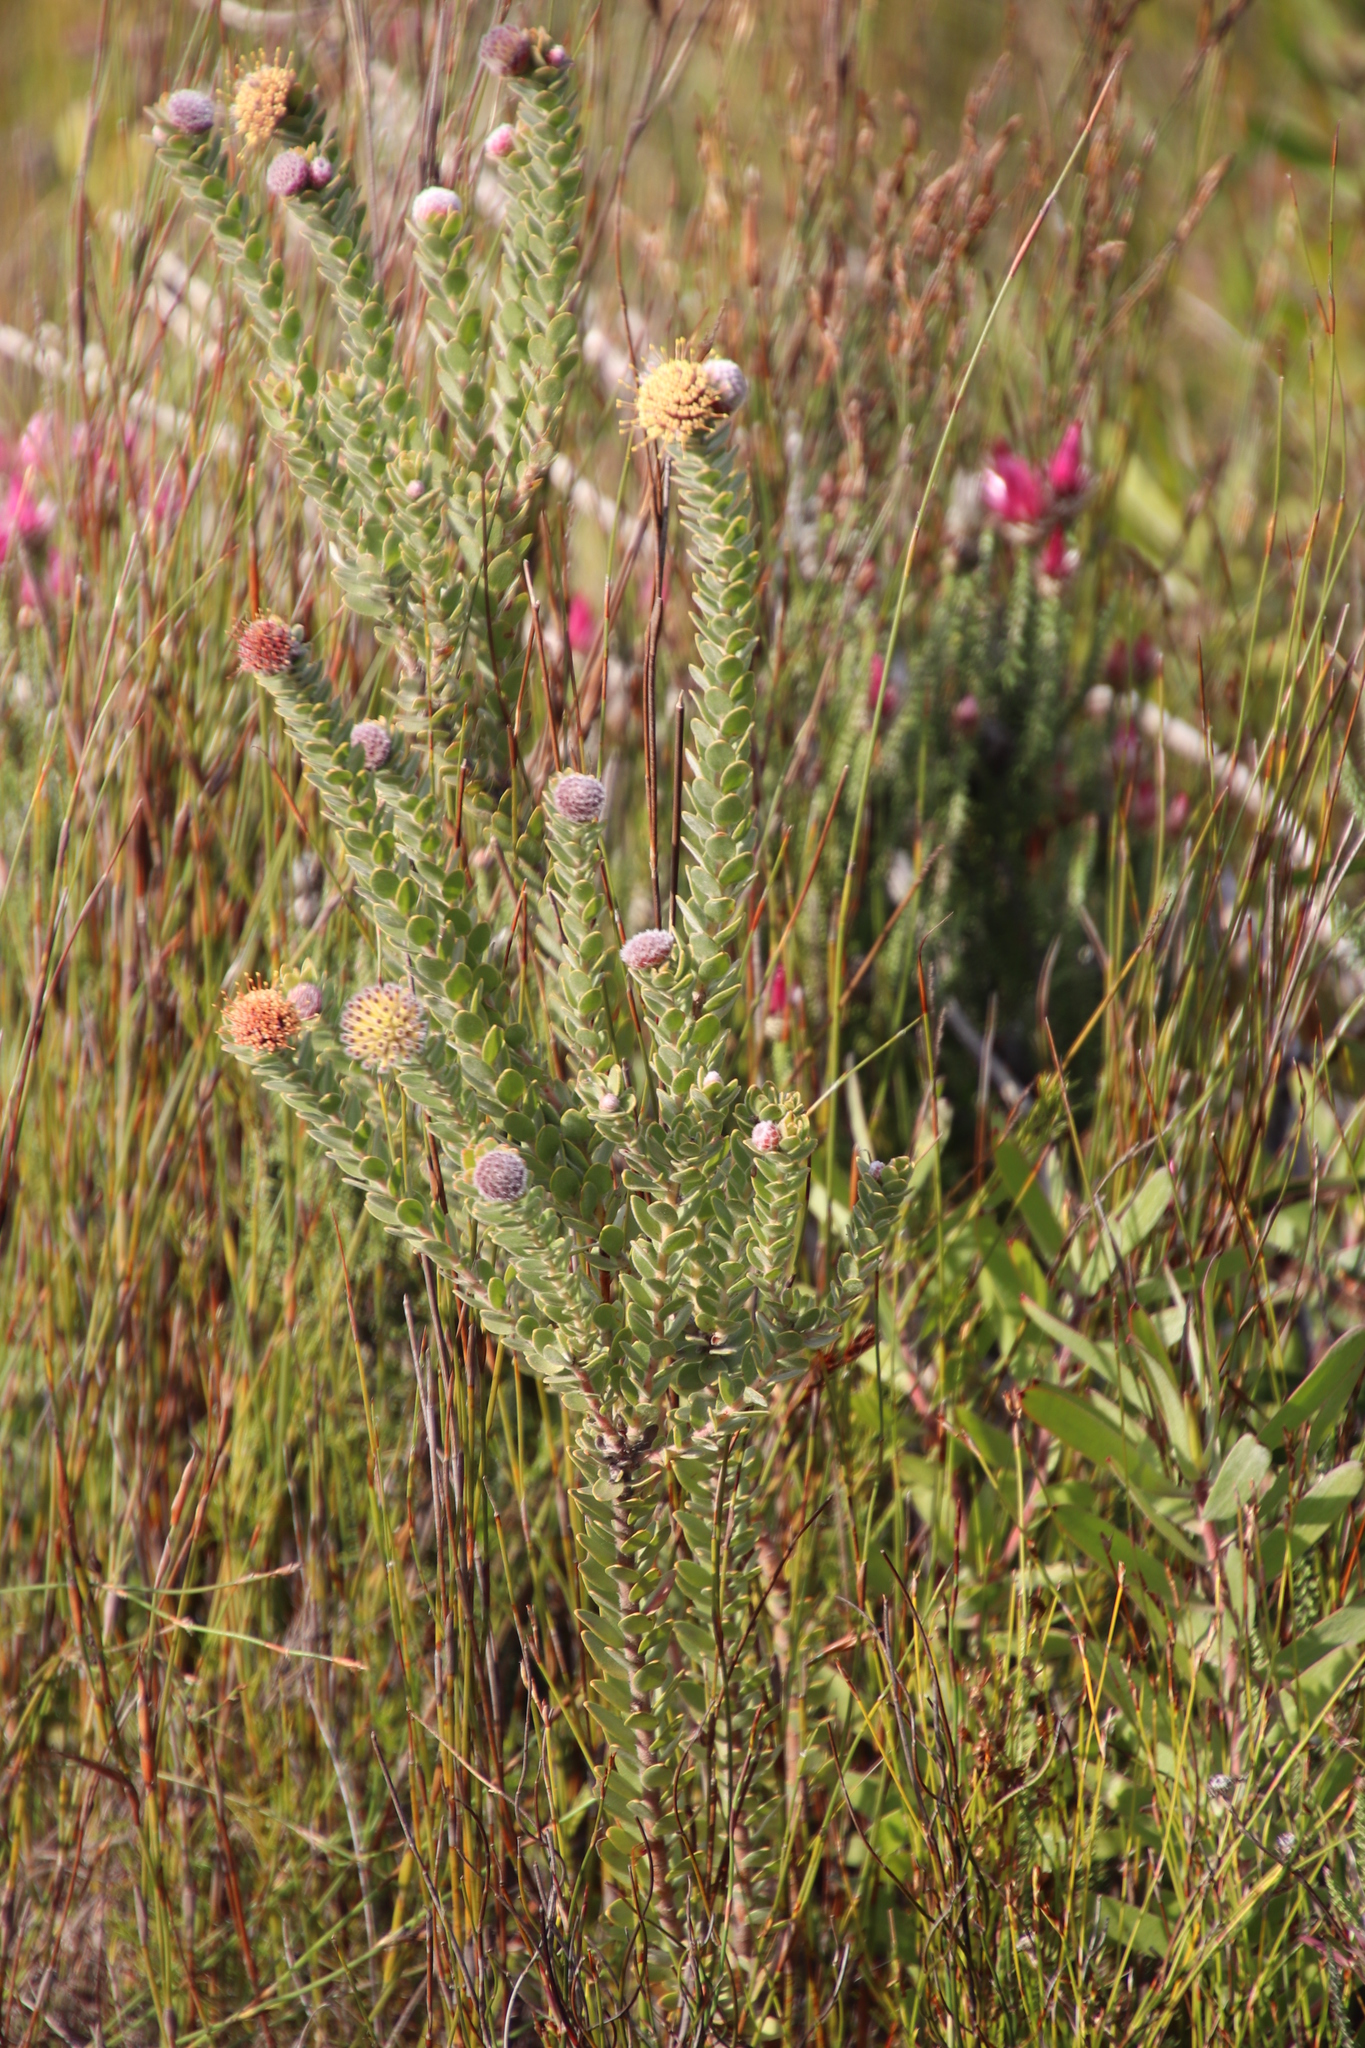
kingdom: Plantae
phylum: Tracheophyta
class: Magnoliopsida
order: Proteales
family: Proteaceae
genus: Leucospermum
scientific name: Leucospermum truncatulum
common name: Oval-leaf pincushion
